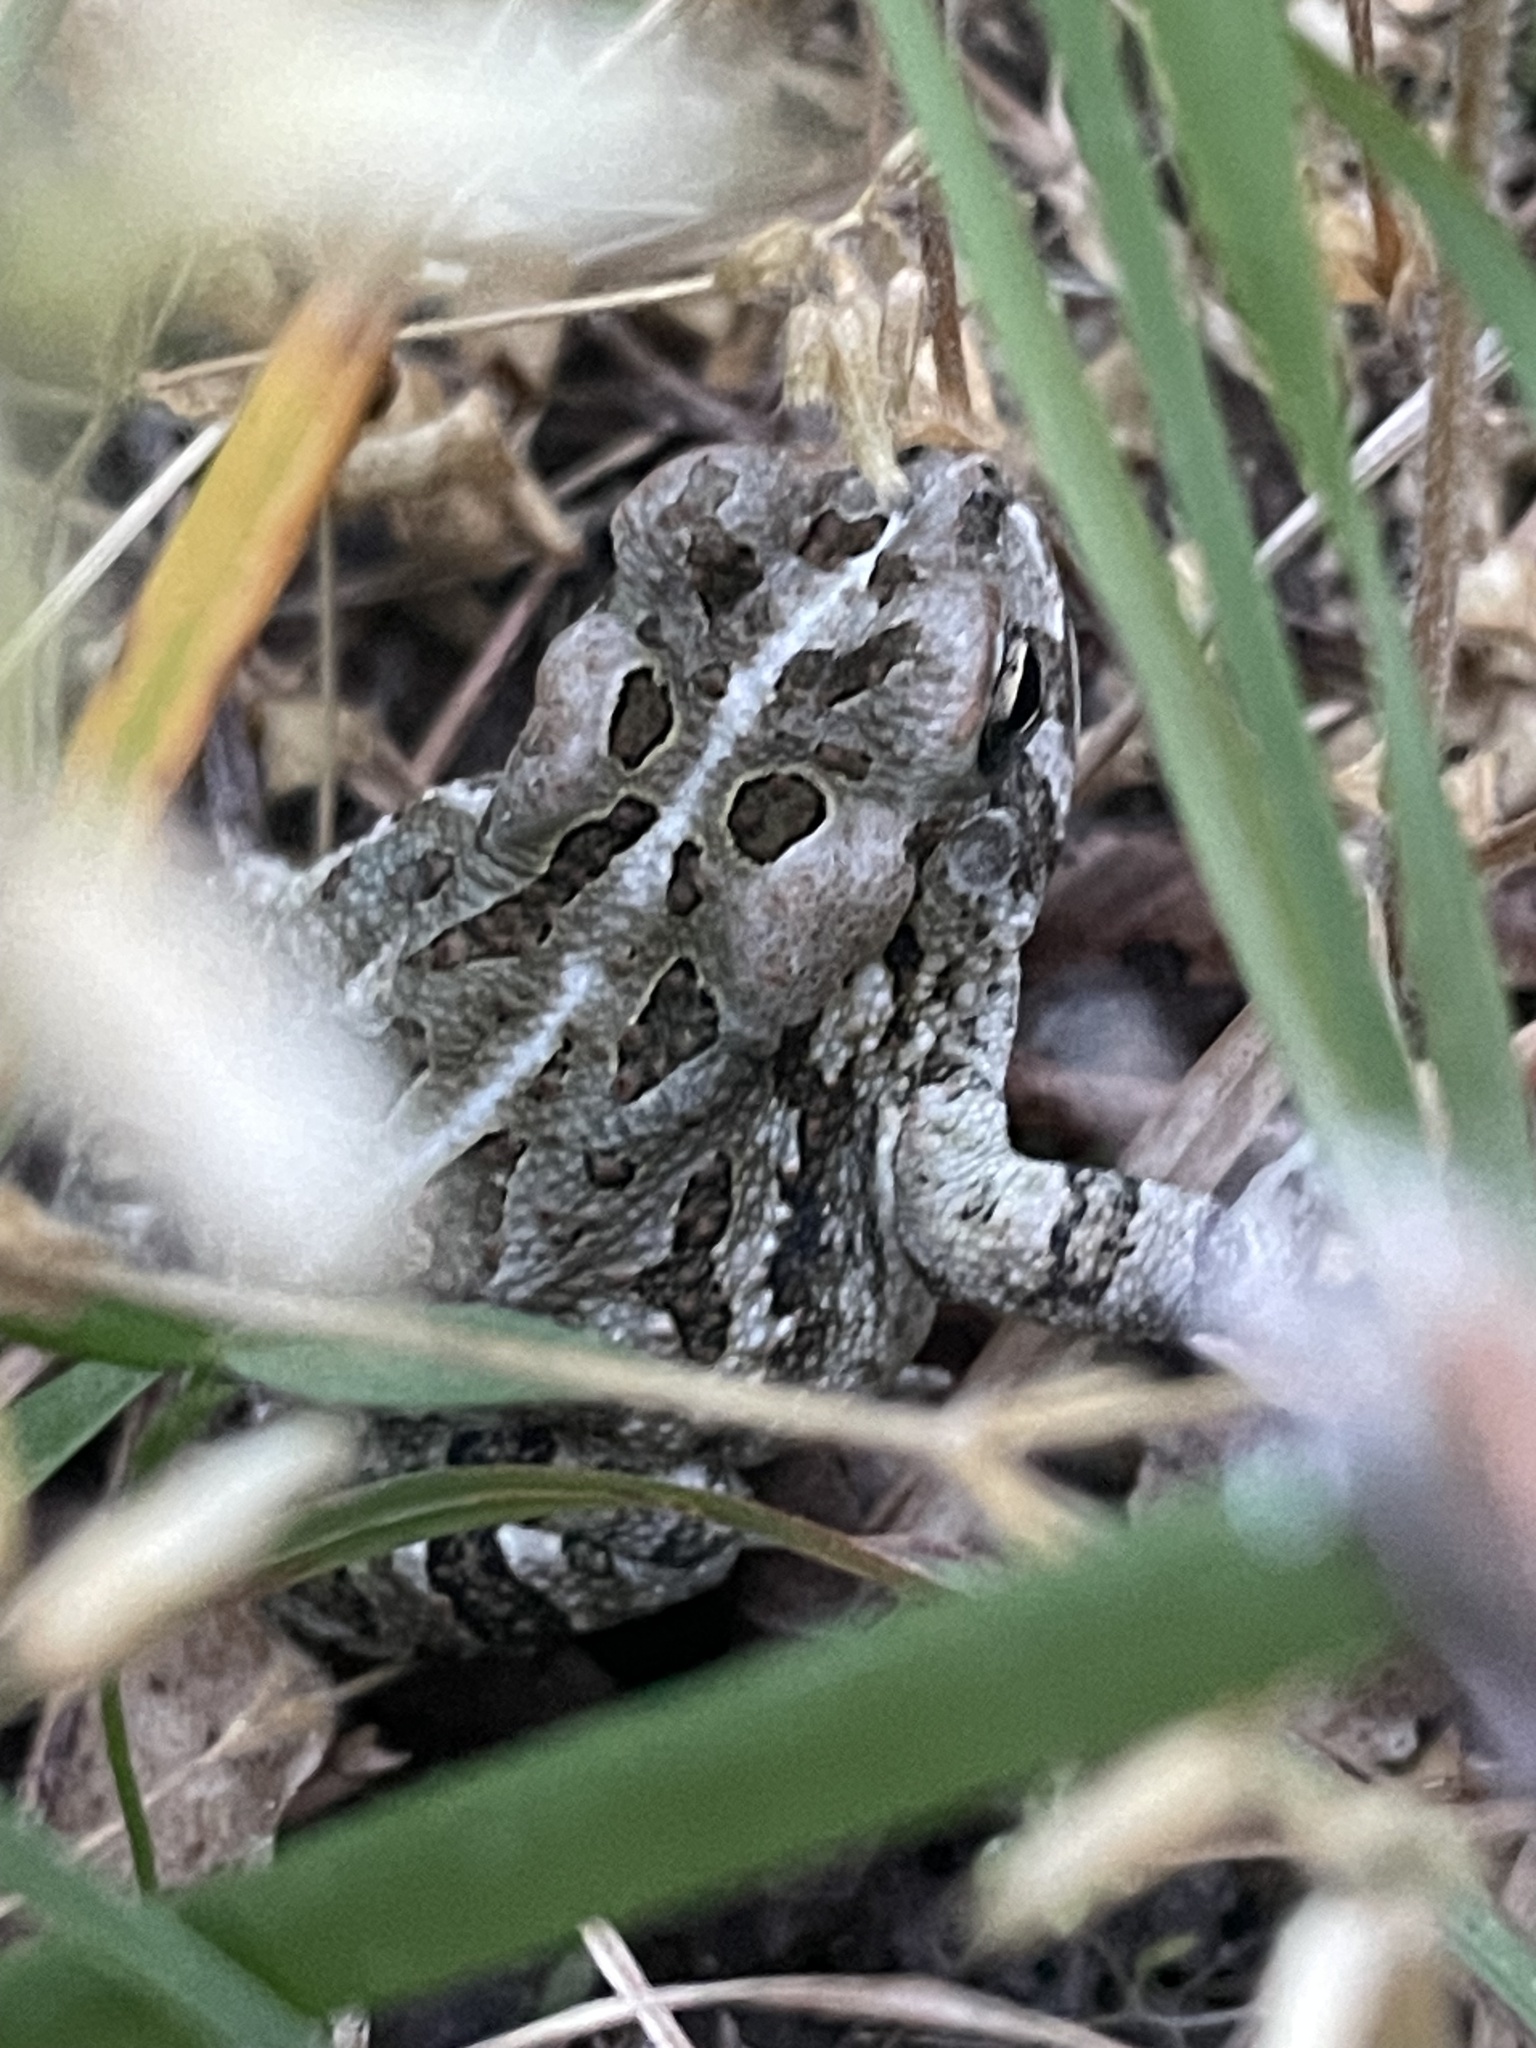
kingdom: Animalia
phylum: Chordata
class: Amphibia
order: Anura
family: Bufonidae
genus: Anaxyrus
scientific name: Anaxyrus fowleri
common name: Fowler's toad
